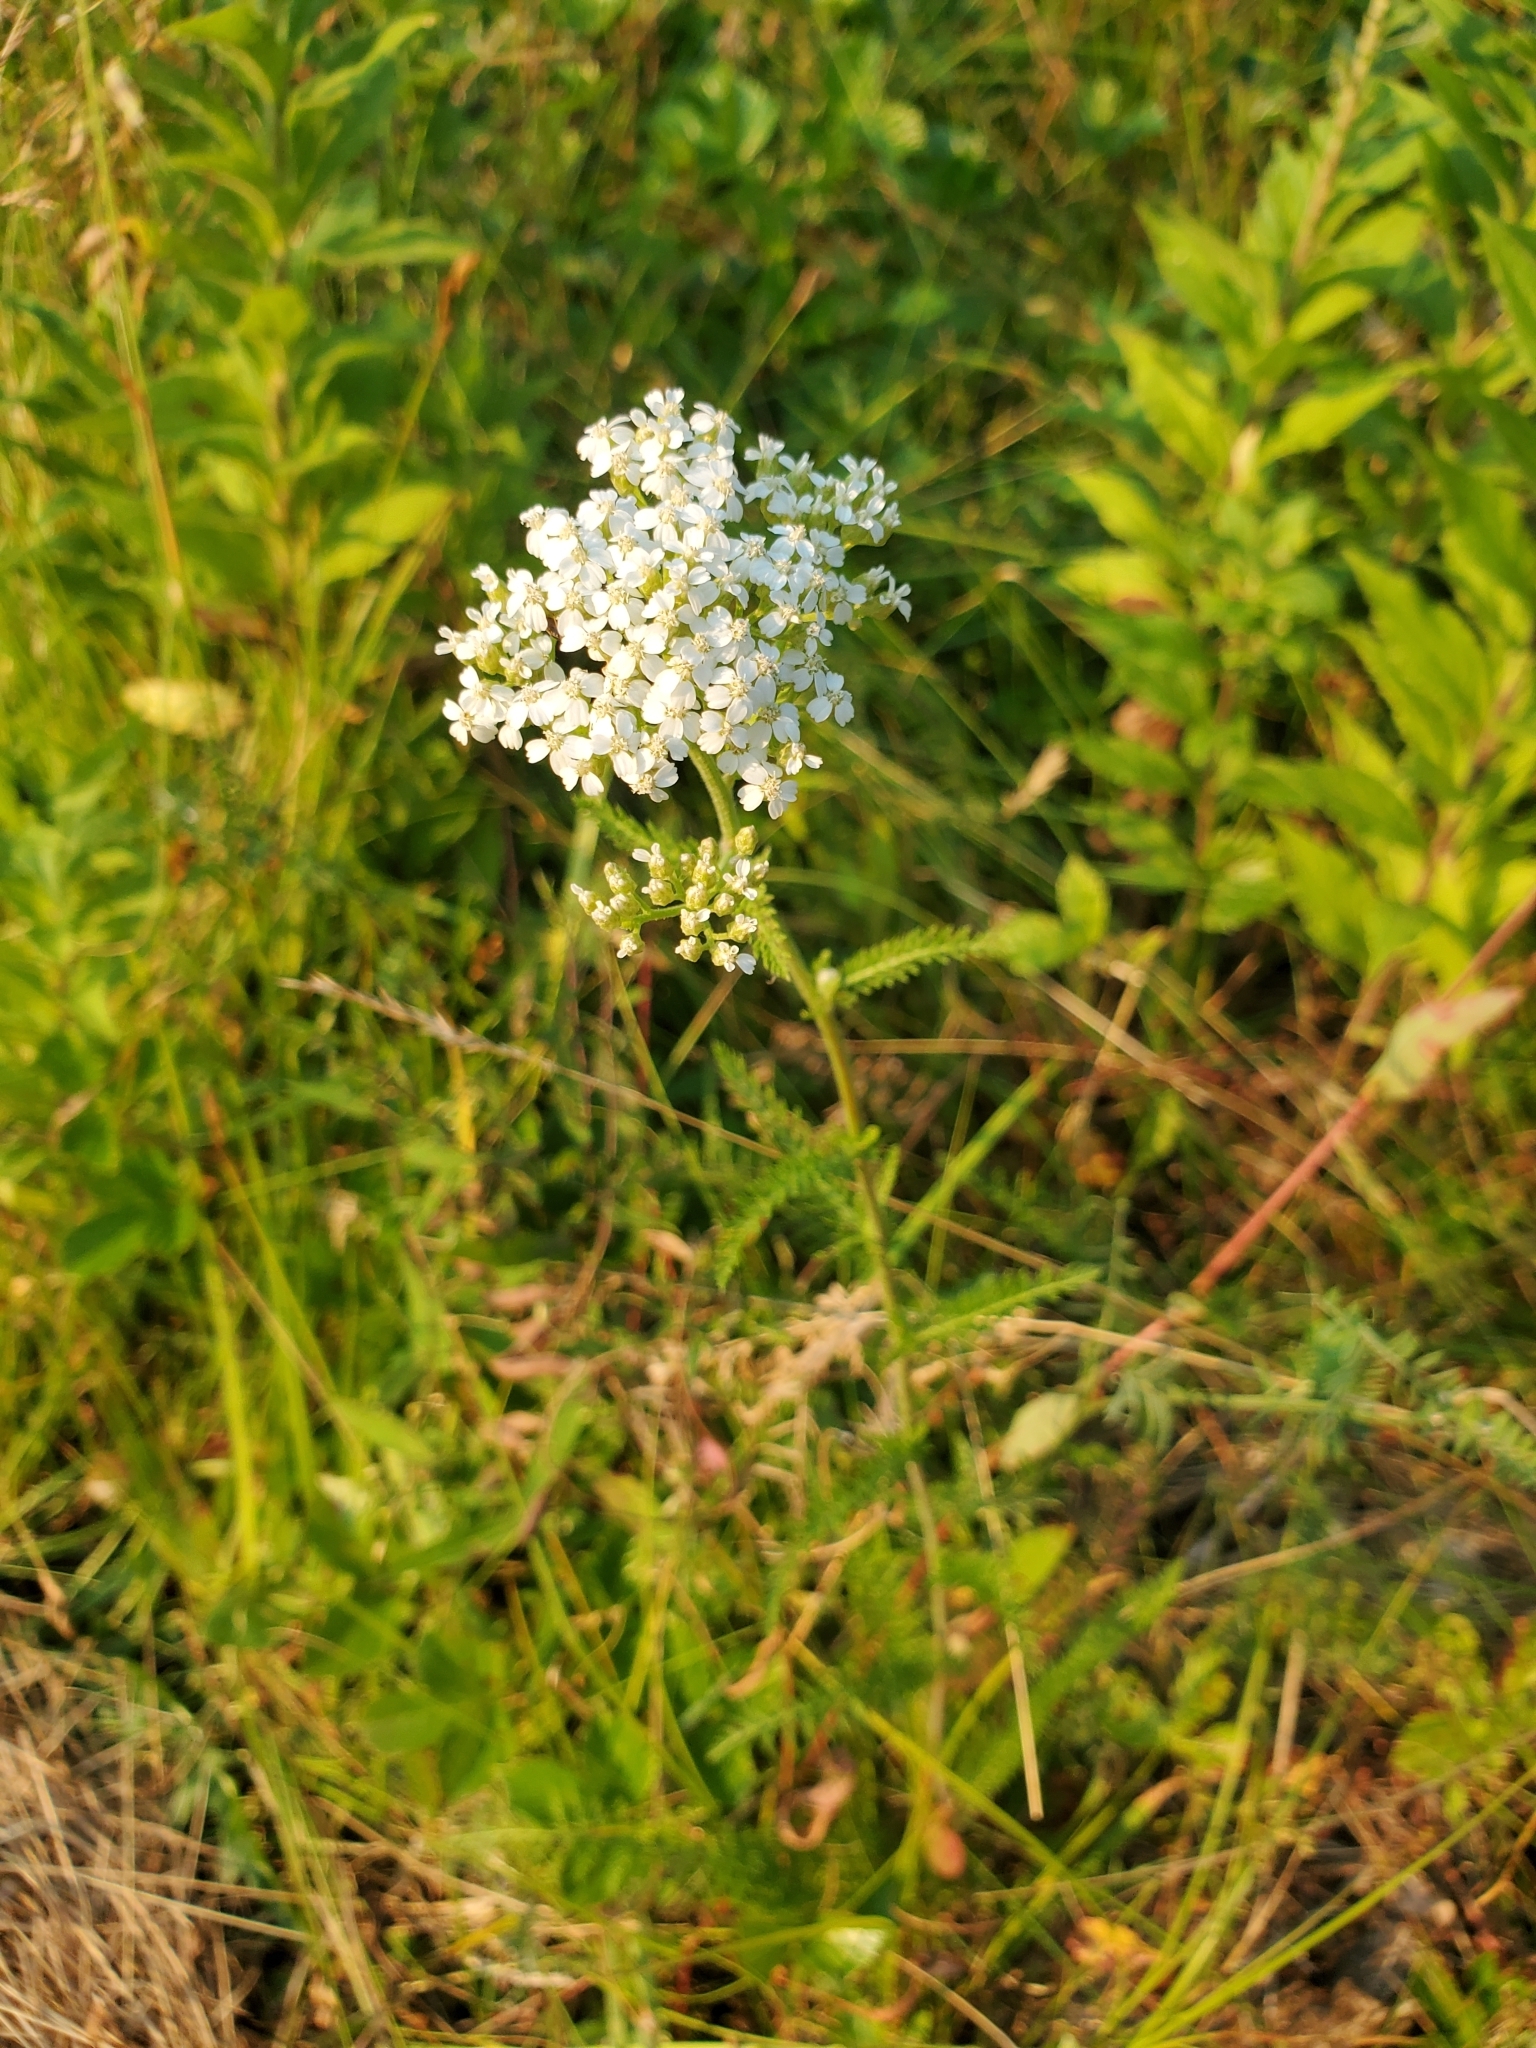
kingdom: Plantae
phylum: Tracheophyta
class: Magnoliopsida
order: Asterales
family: Asteraceae
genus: Achillea
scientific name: Achillea millefolium
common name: Yarrow
